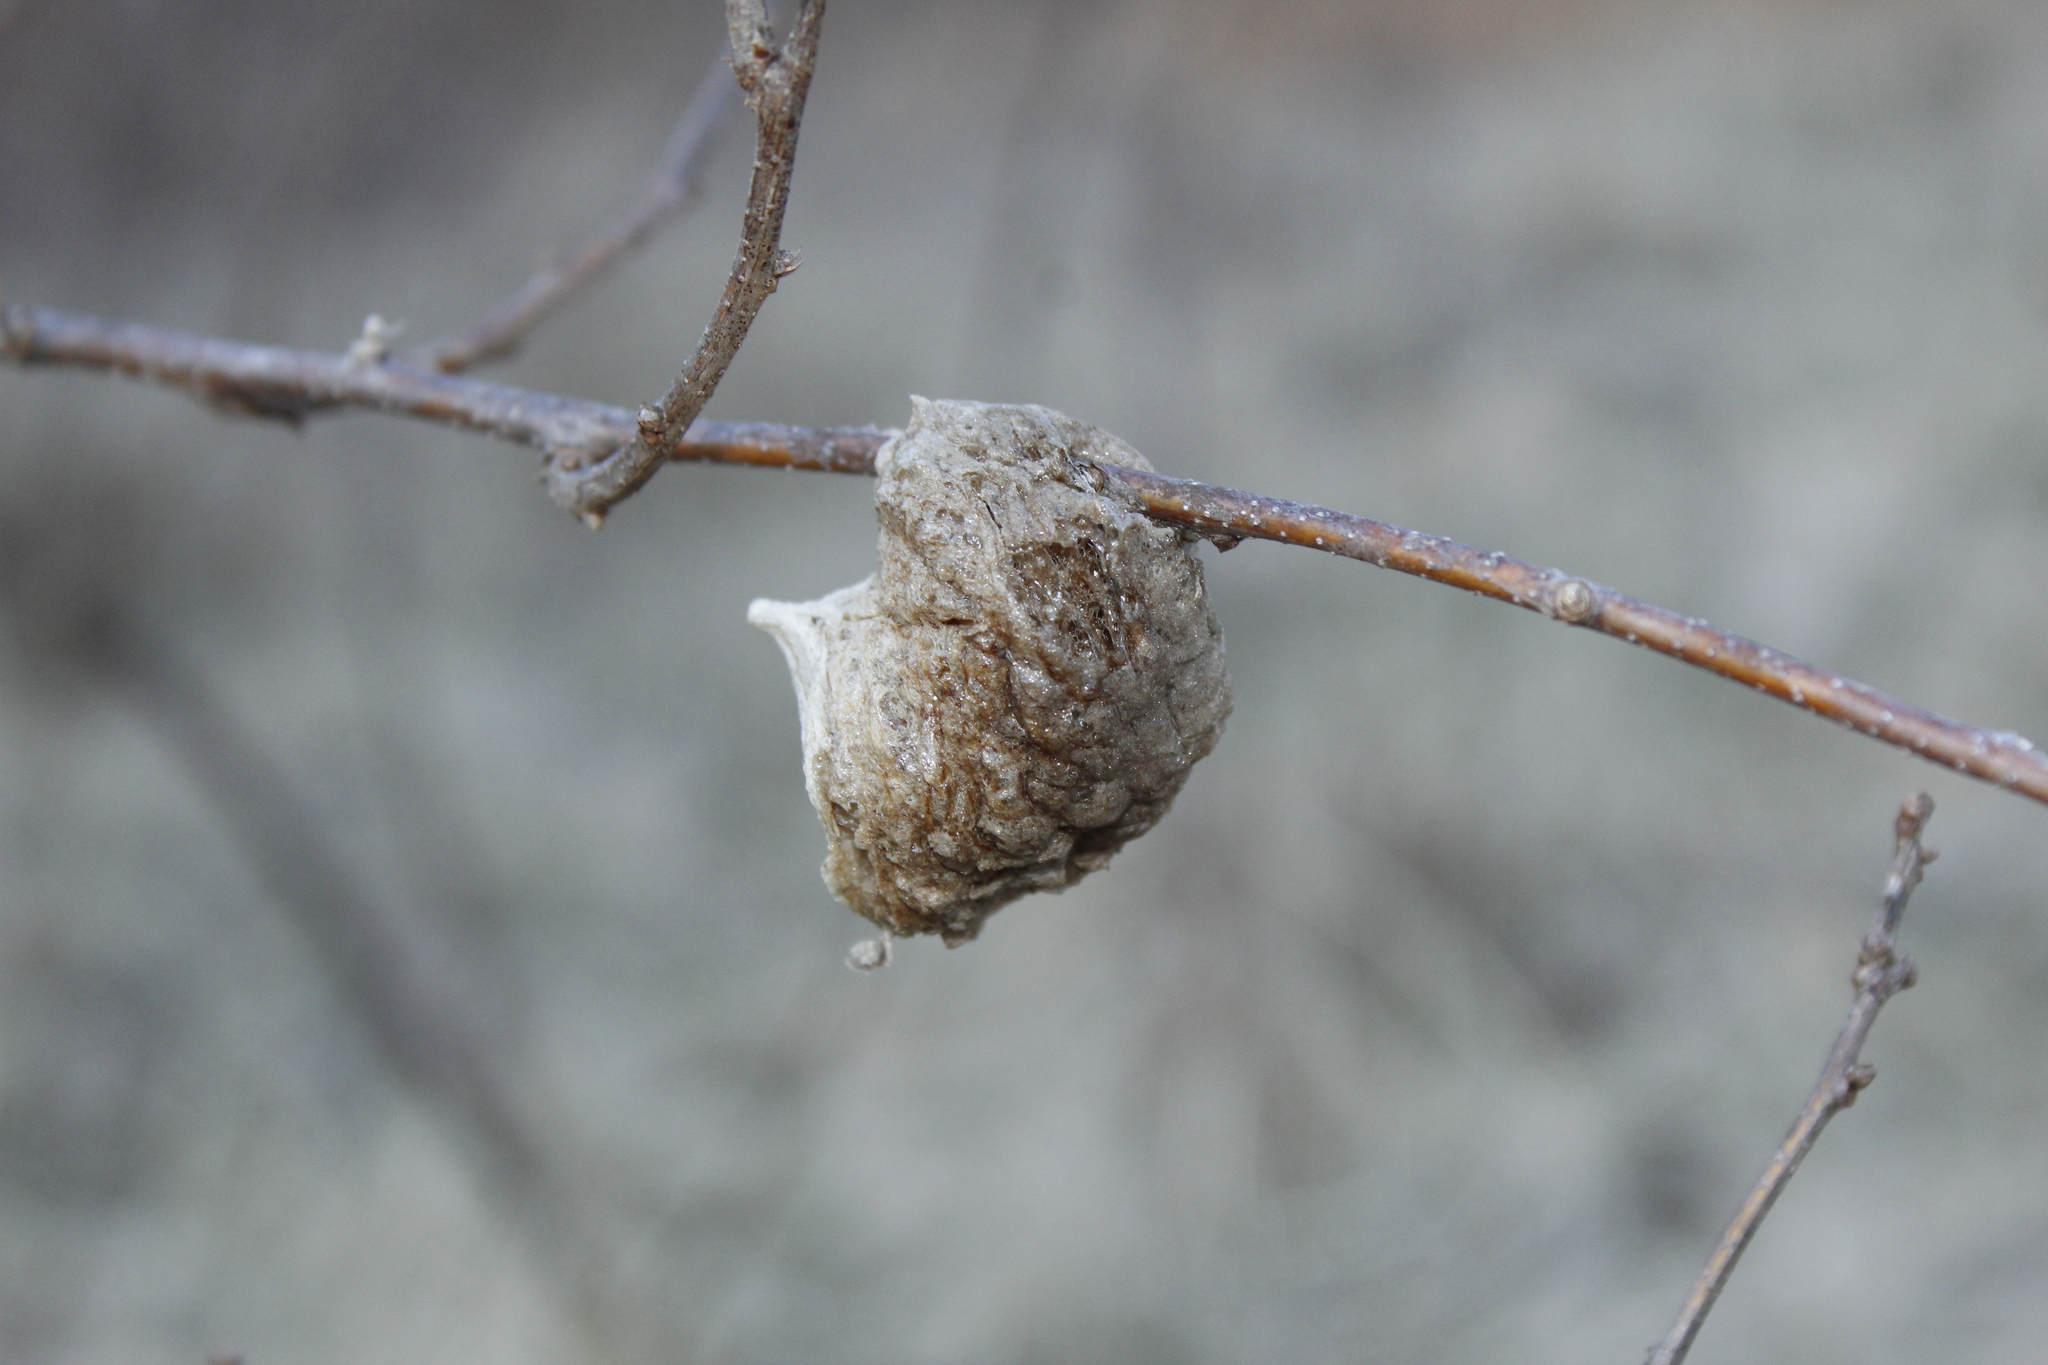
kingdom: Animalia
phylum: Arthropoda
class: Insecta
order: Mantodea
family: Mantidae
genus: Tenodera
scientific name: Tenodera sinensis
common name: Chinese mantis
